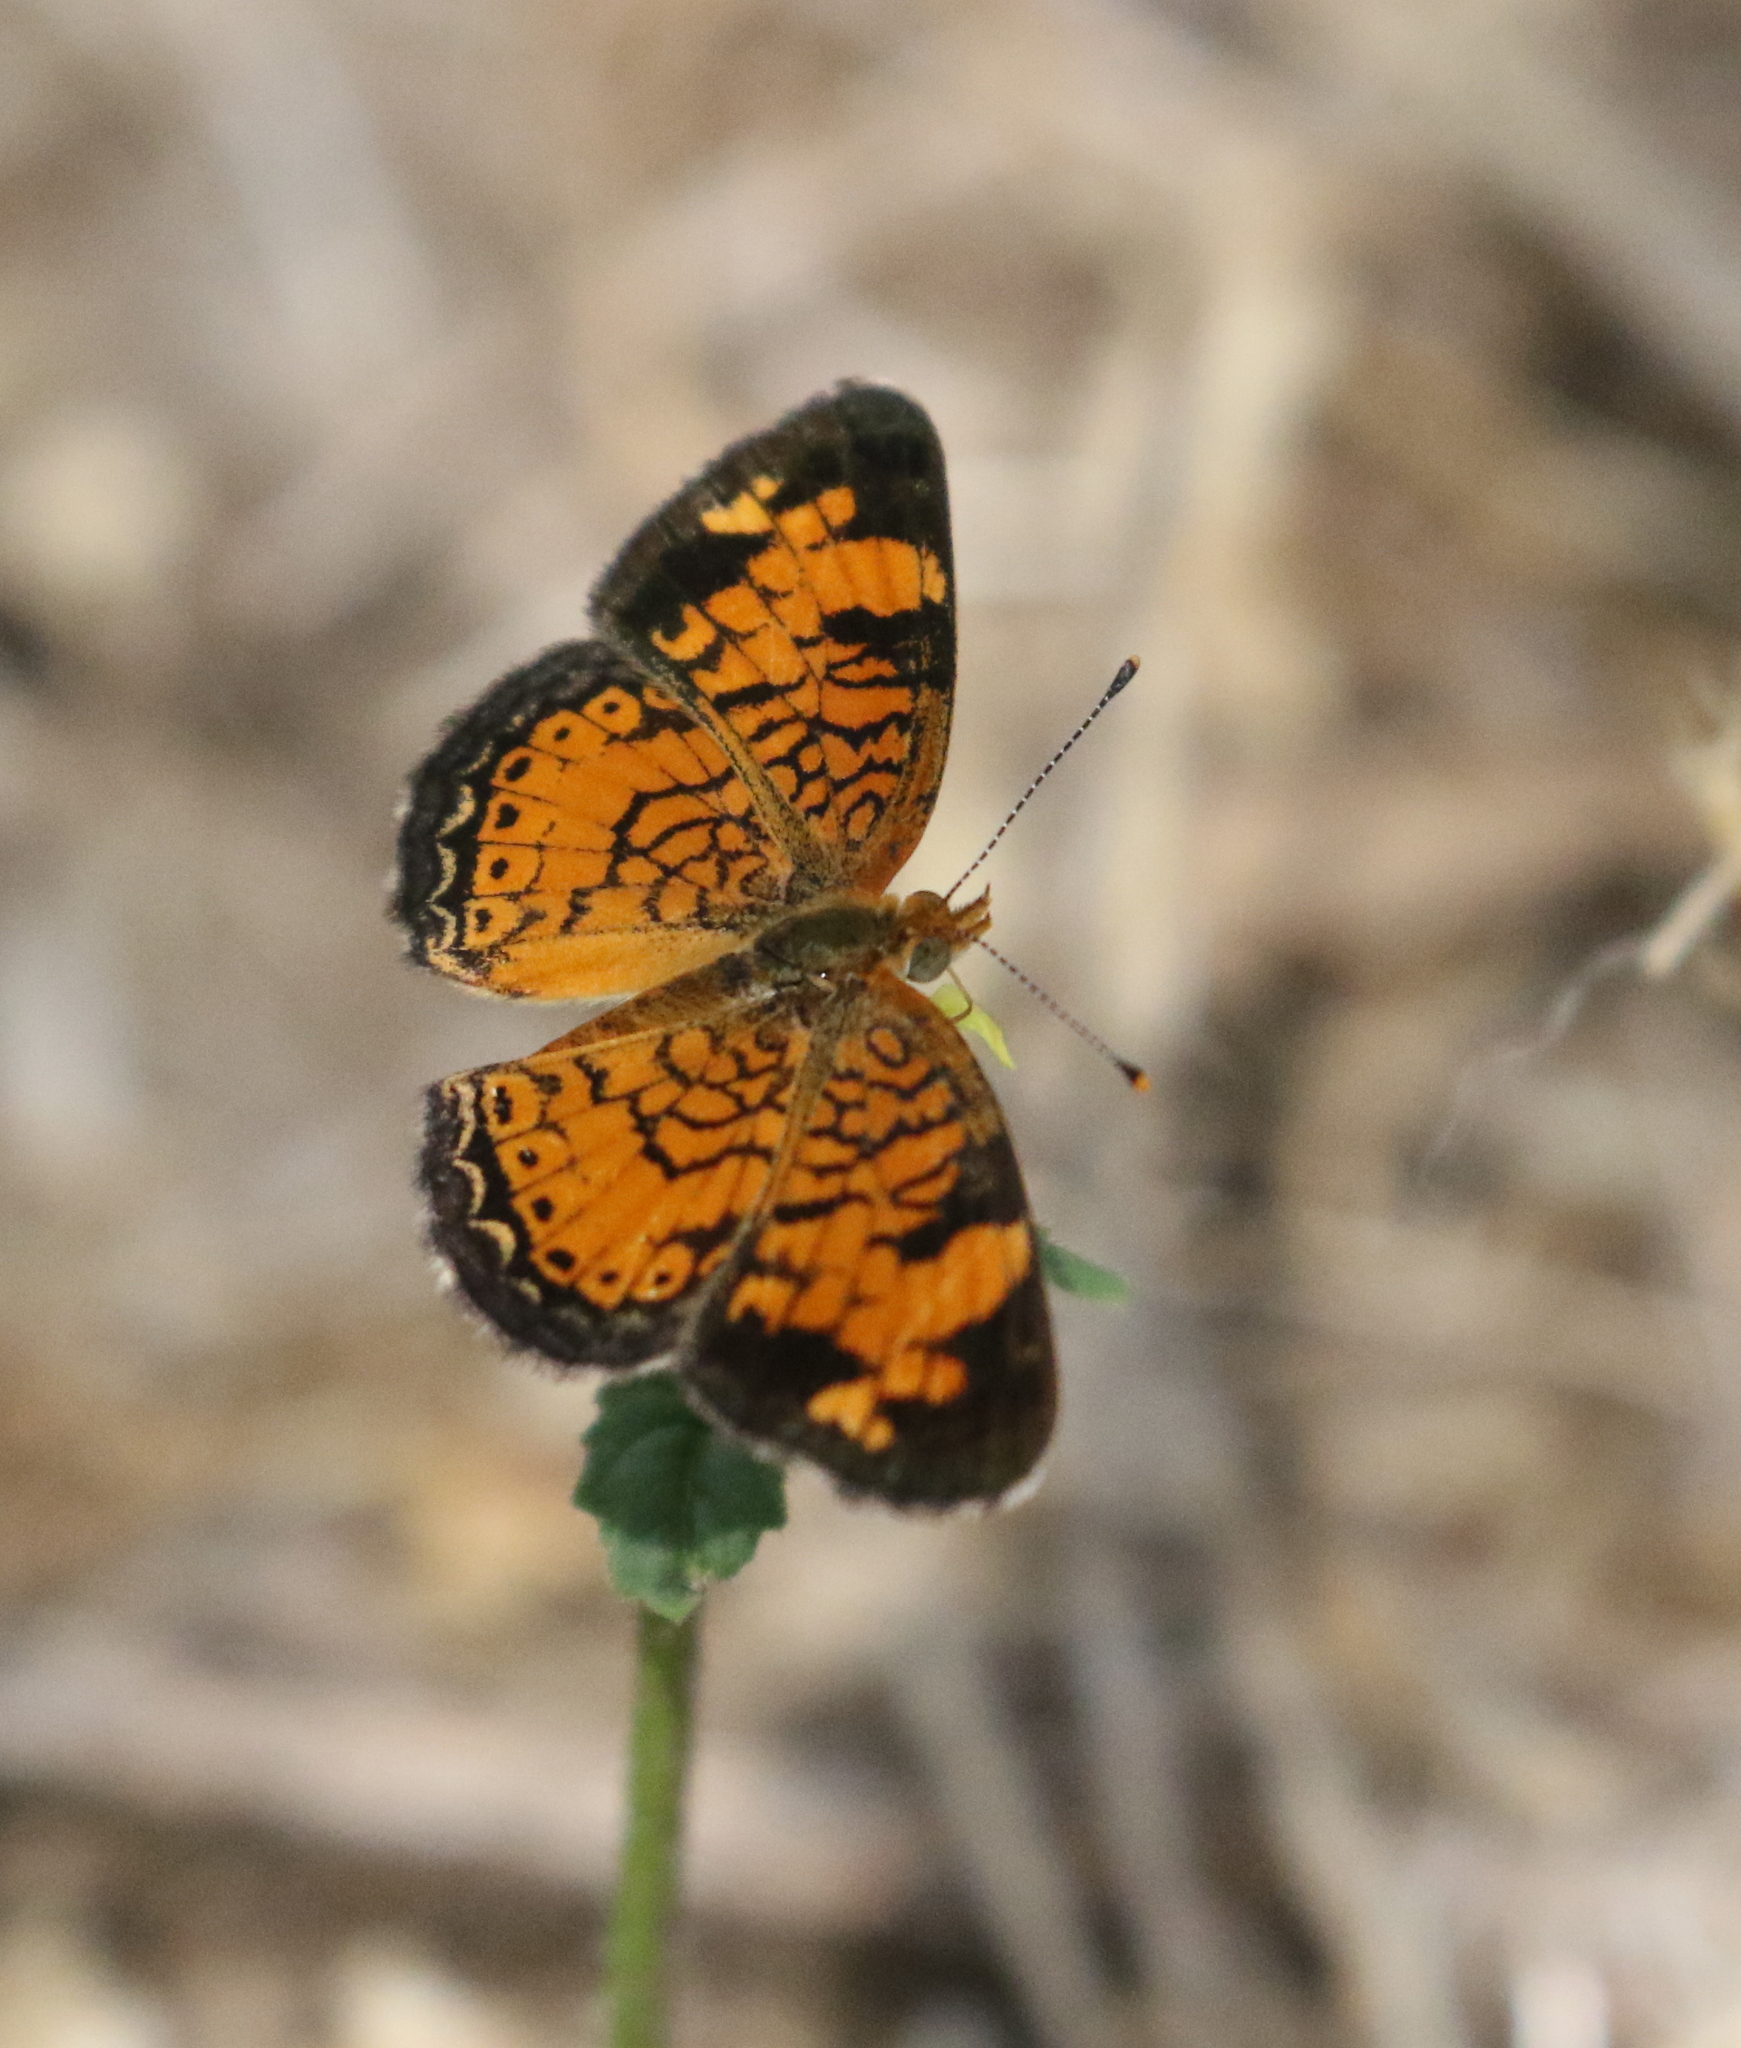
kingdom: Animalia
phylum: Arthropoda
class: Insecta
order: Lepidoptera
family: Nymphalidae
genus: Phyciodes
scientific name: Phyciodes tharos
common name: Pearl crescent
